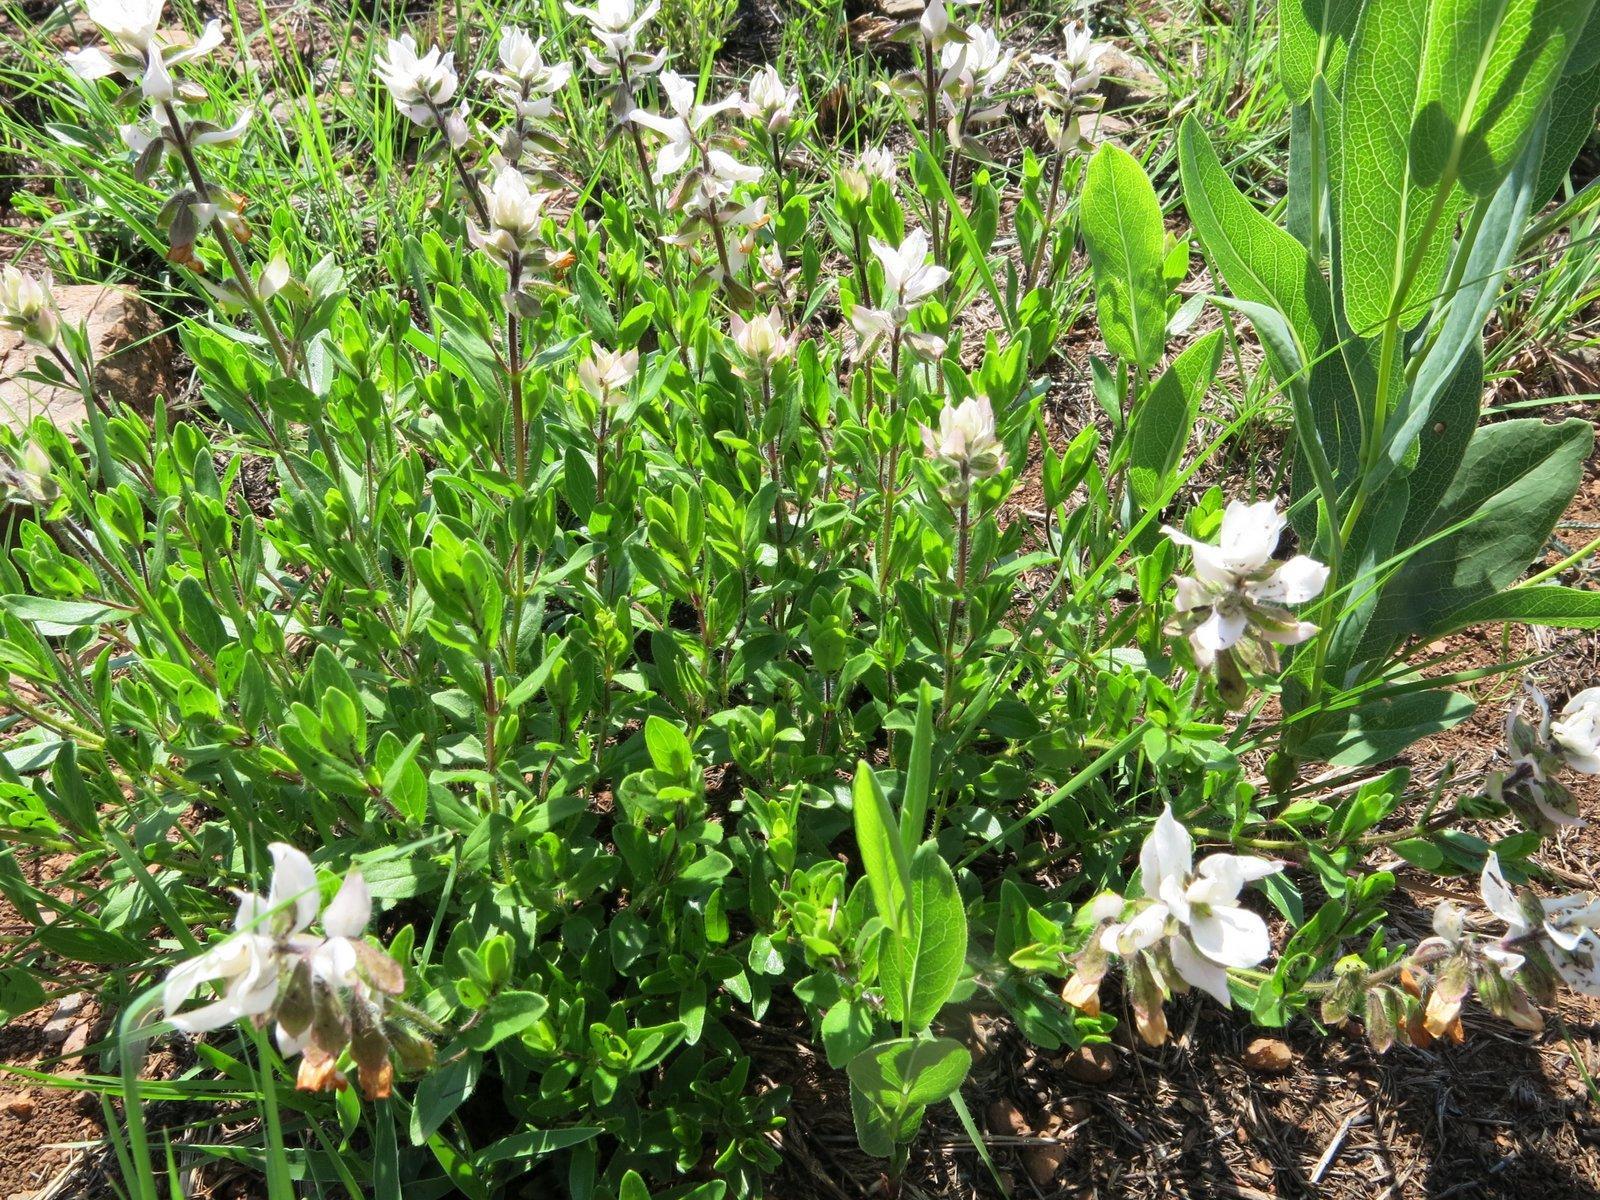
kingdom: Plantae
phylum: Tracheophyta
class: Magnoliopsida
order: Lamiales
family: Lamiaceae
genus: Syncolostemon
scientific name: Syncolostemon persimilis
